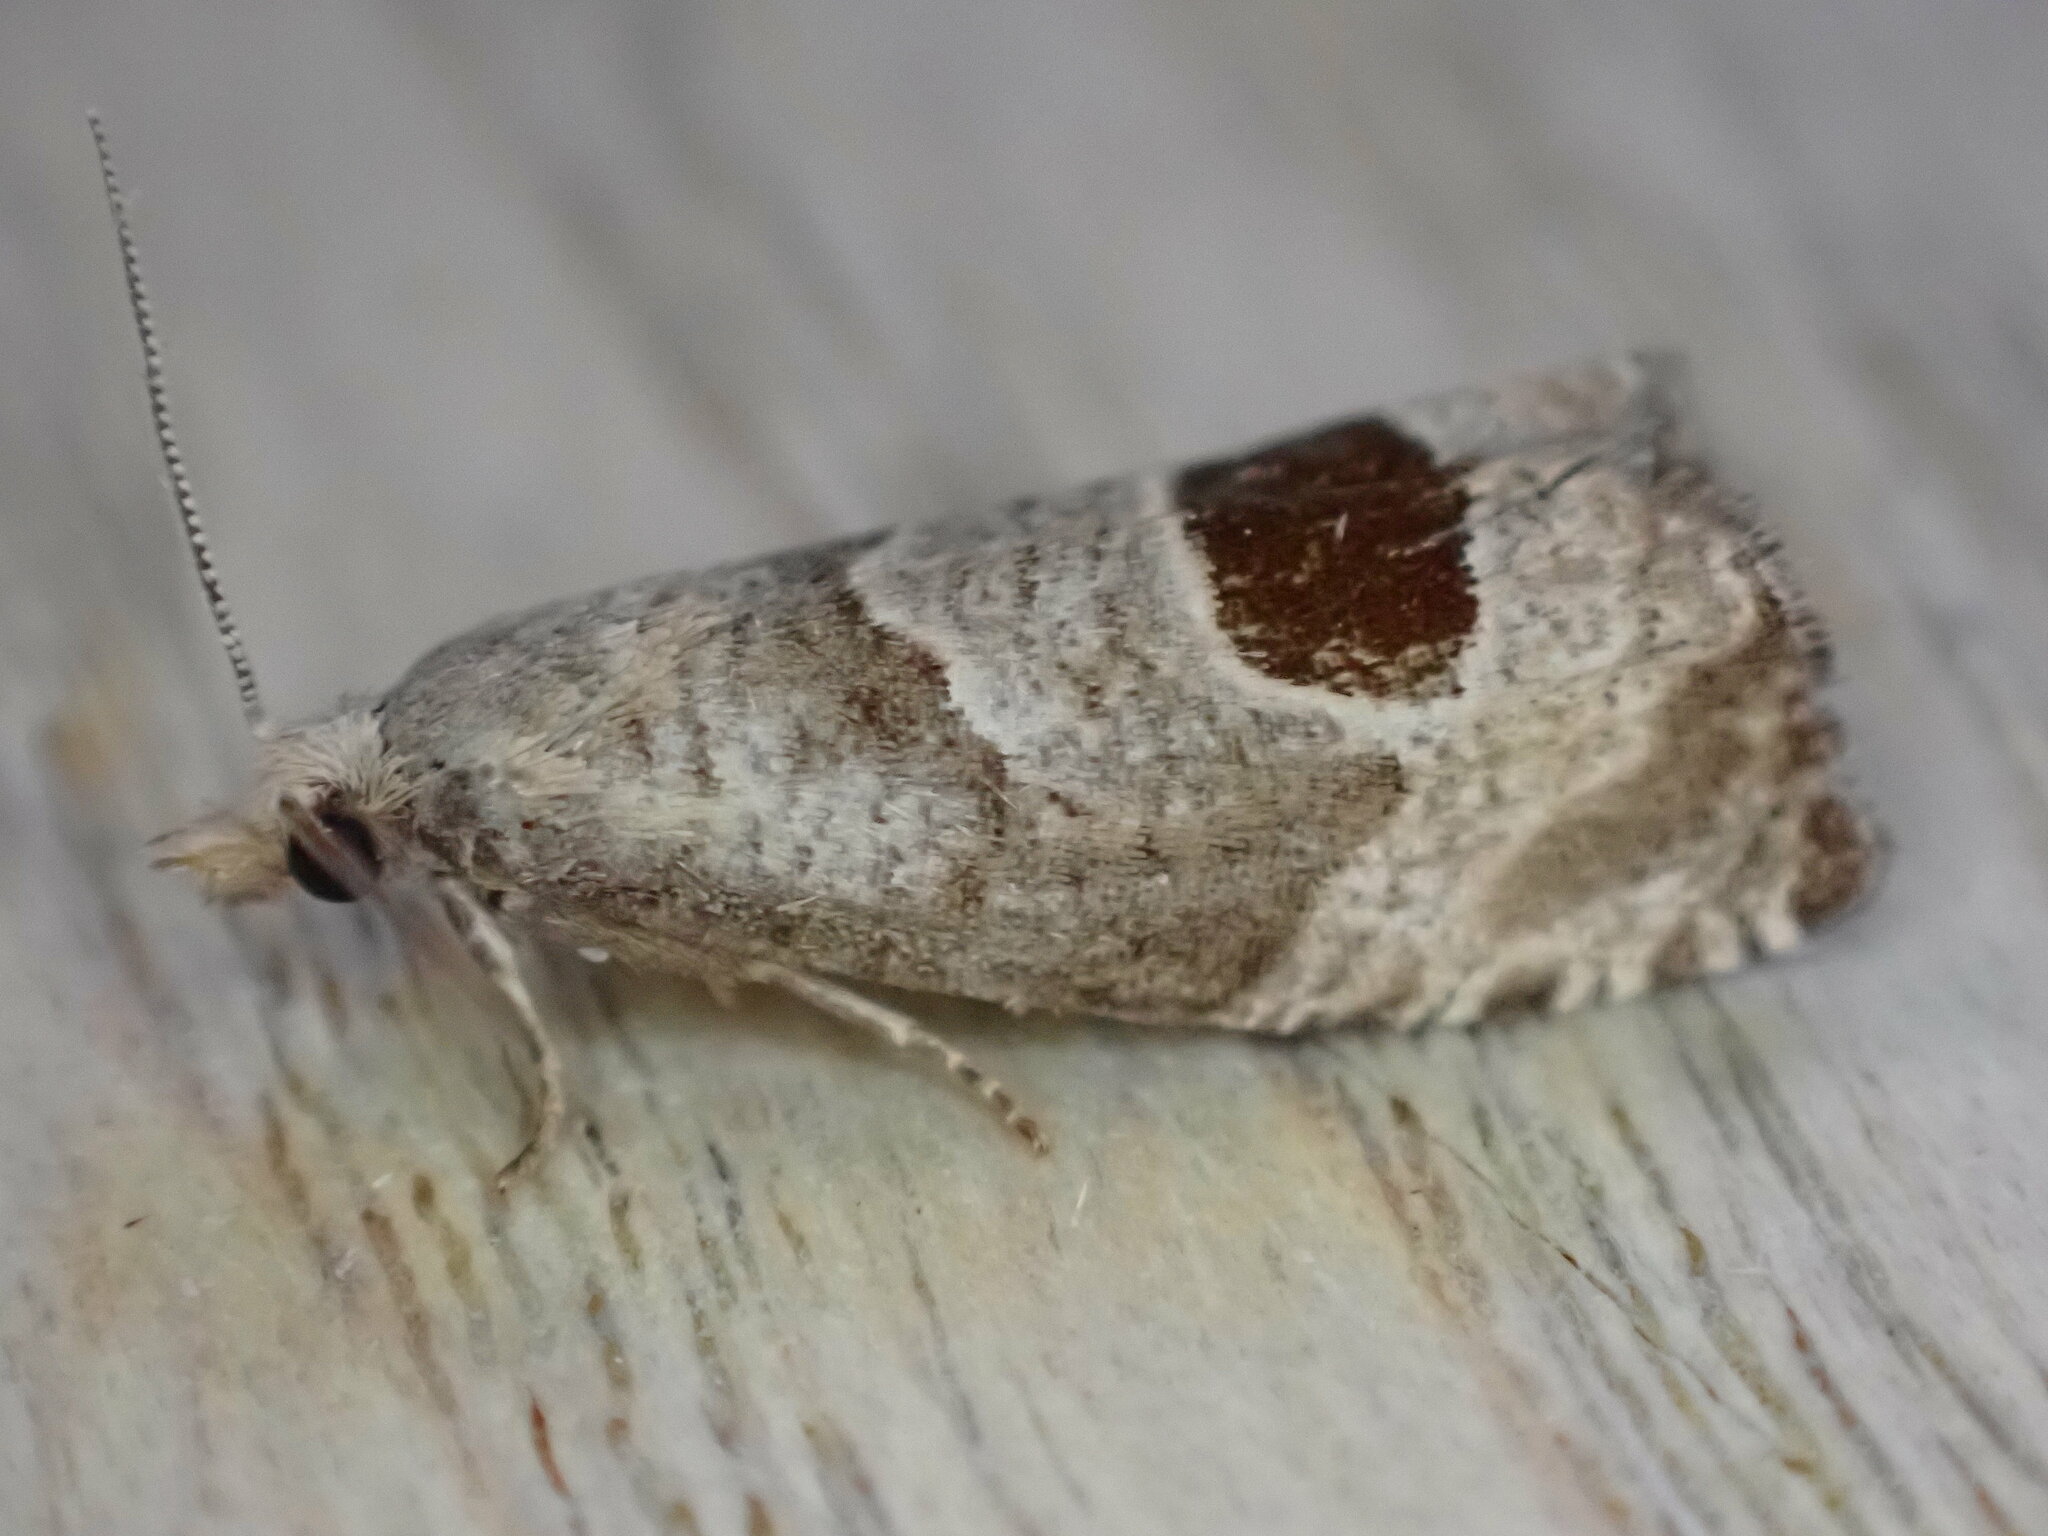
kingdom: Animalia
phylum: Arthropoda
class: Insecta
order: Lepidoptera
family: Tortricidae
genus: Notocelia
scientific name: Notocelia uddmanniana
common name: Bramble shoot moth
